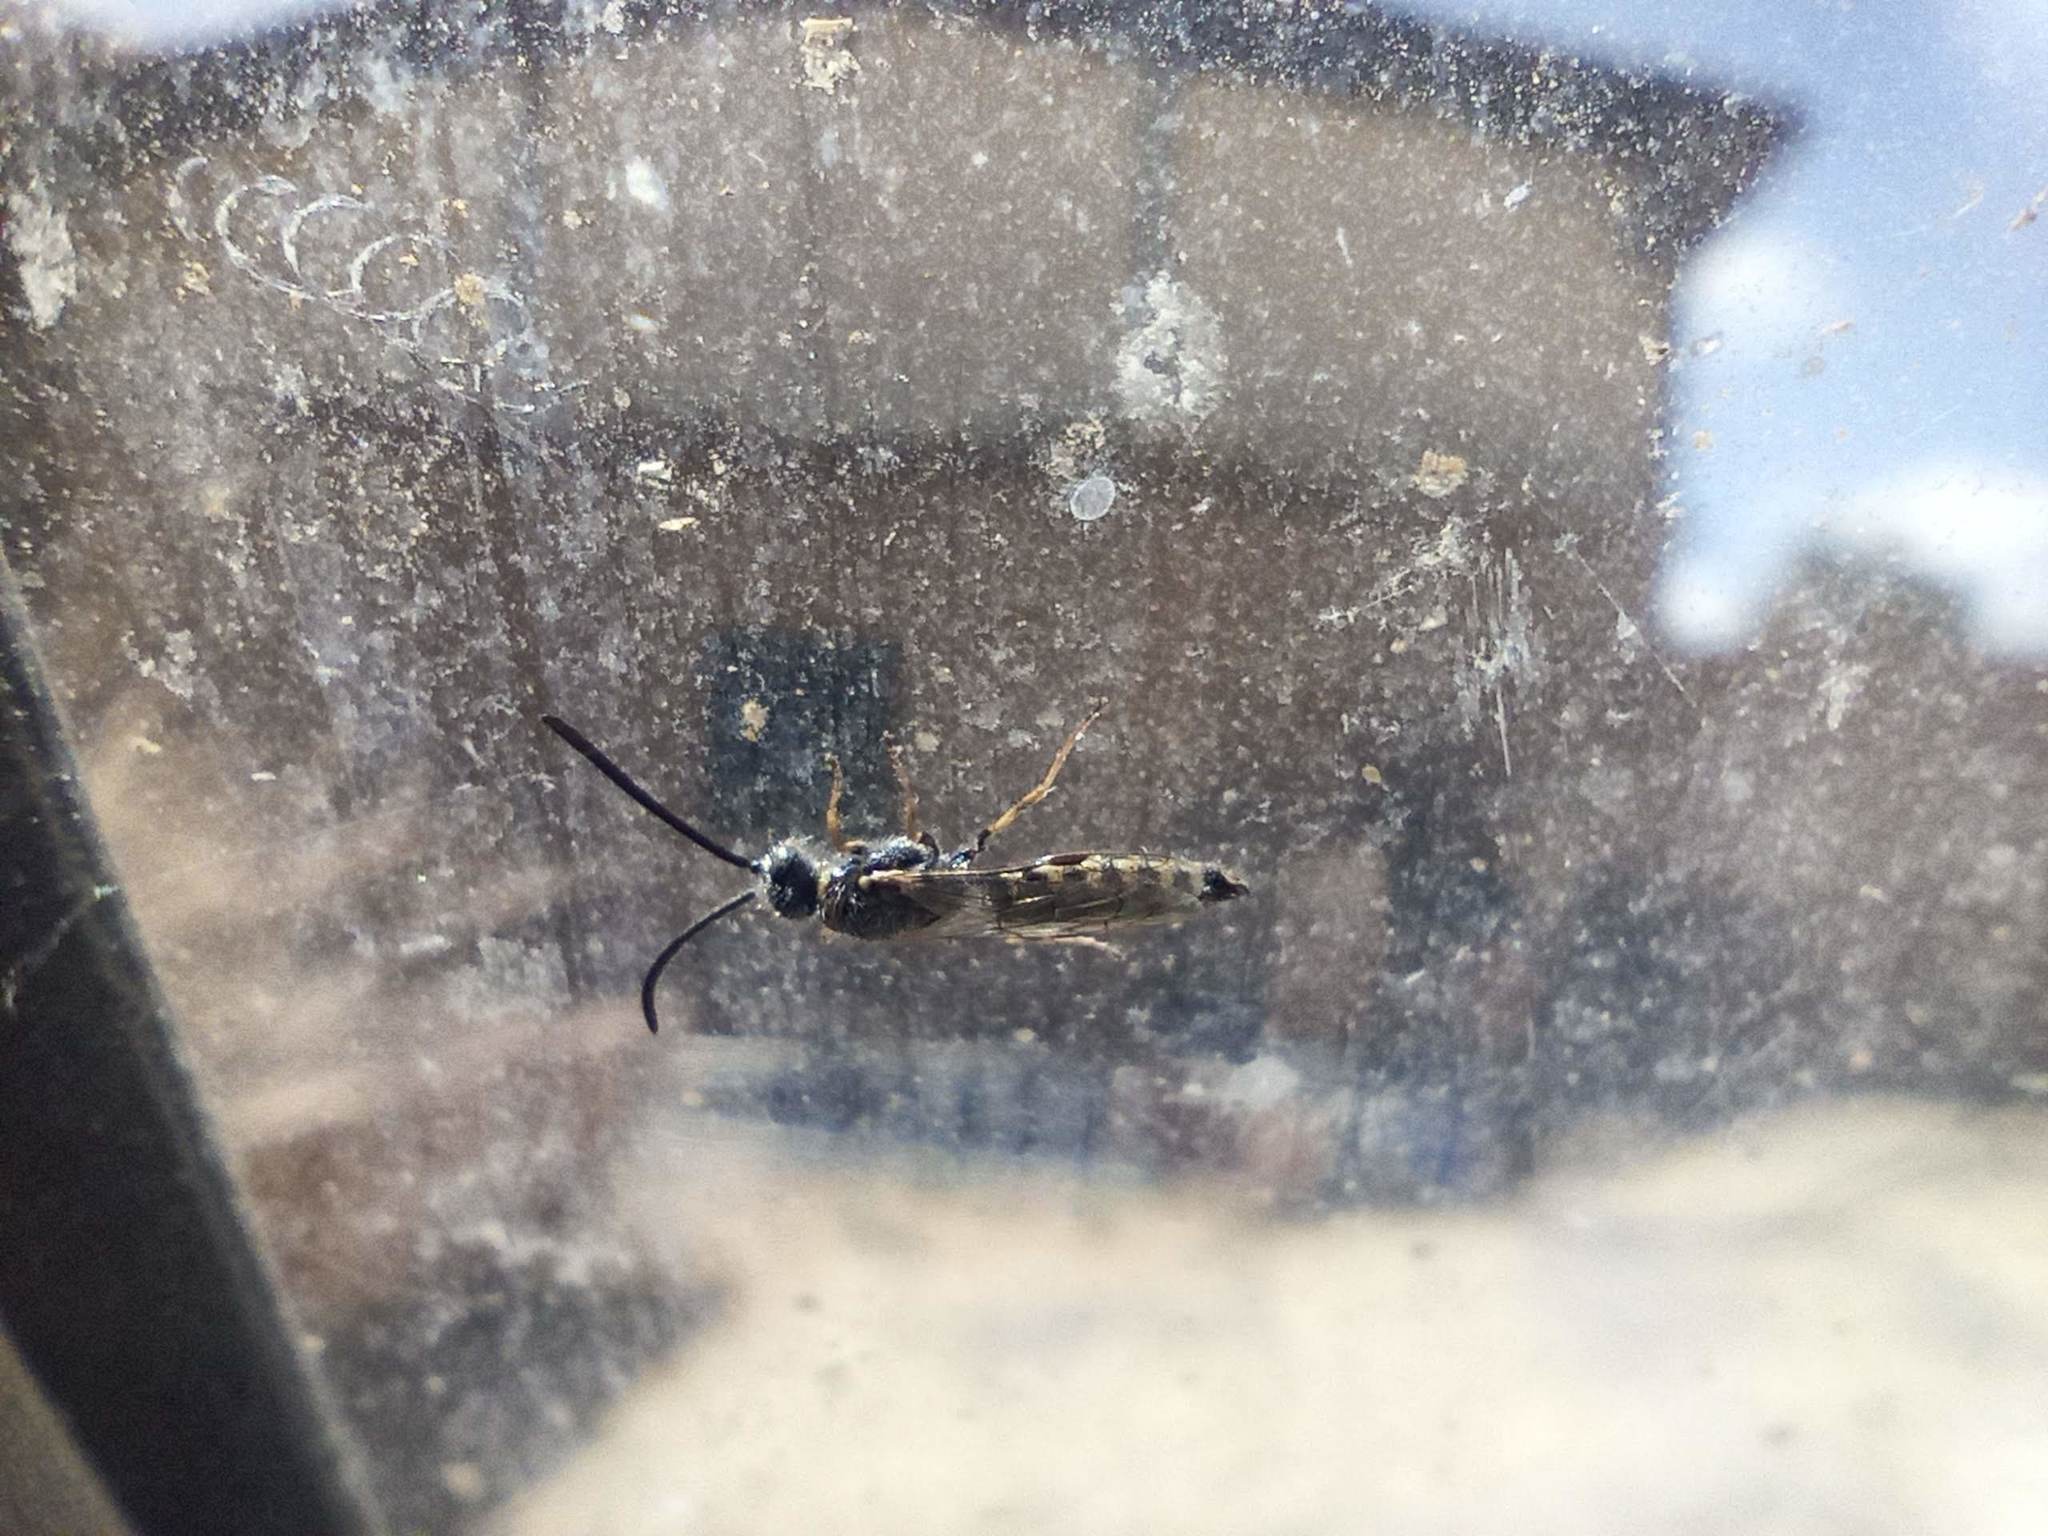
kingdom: Animalia
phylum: Arthropoda
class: Insecta
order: Hymenoptera
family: Tiphiidae
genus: Poecilotiphia
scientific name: Poecilotiphia
